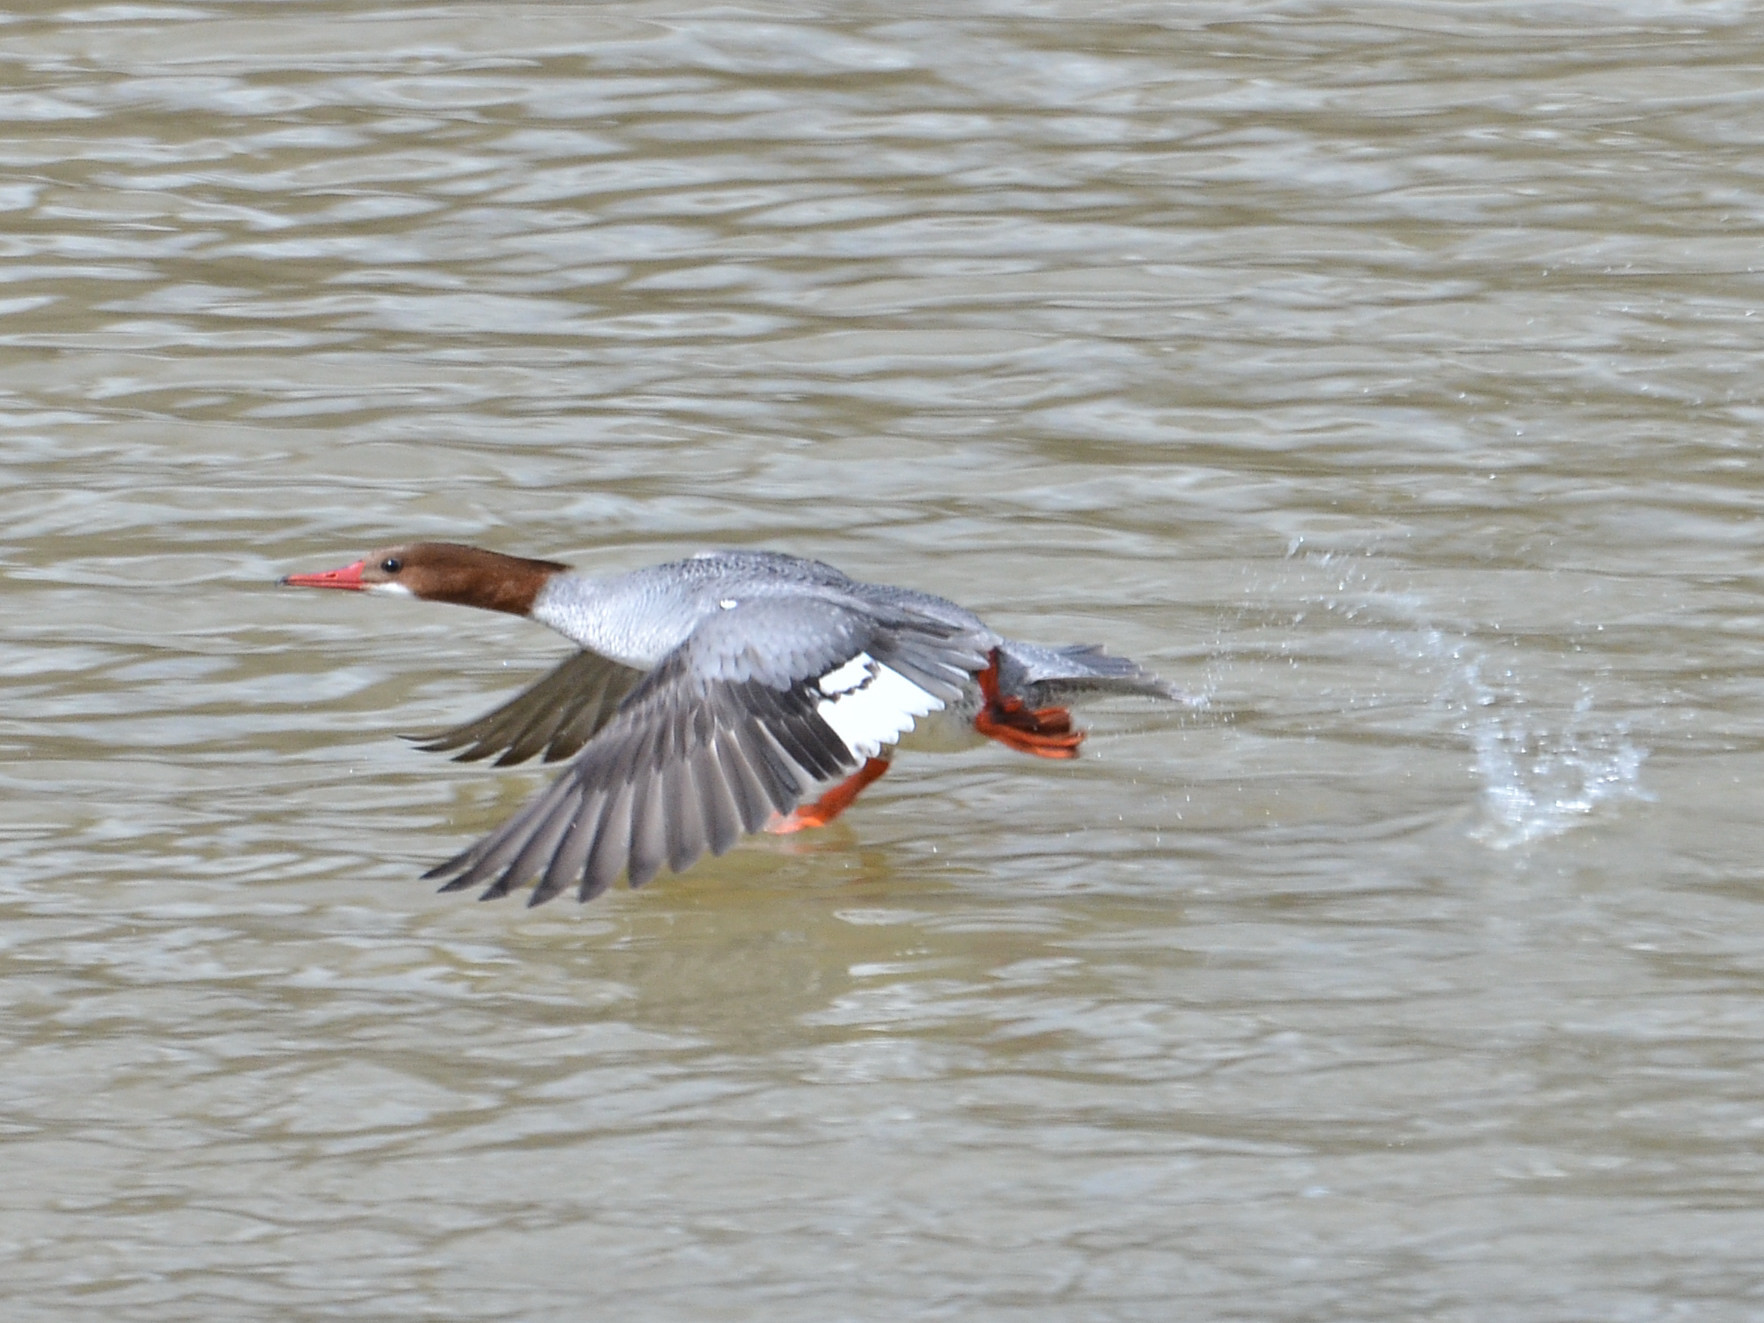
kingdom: Animalia
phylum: Chordata
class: Aves
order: Anseriformes
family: Anatidae
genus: Mergus
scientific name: Mergus merganser
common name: Common merganser
